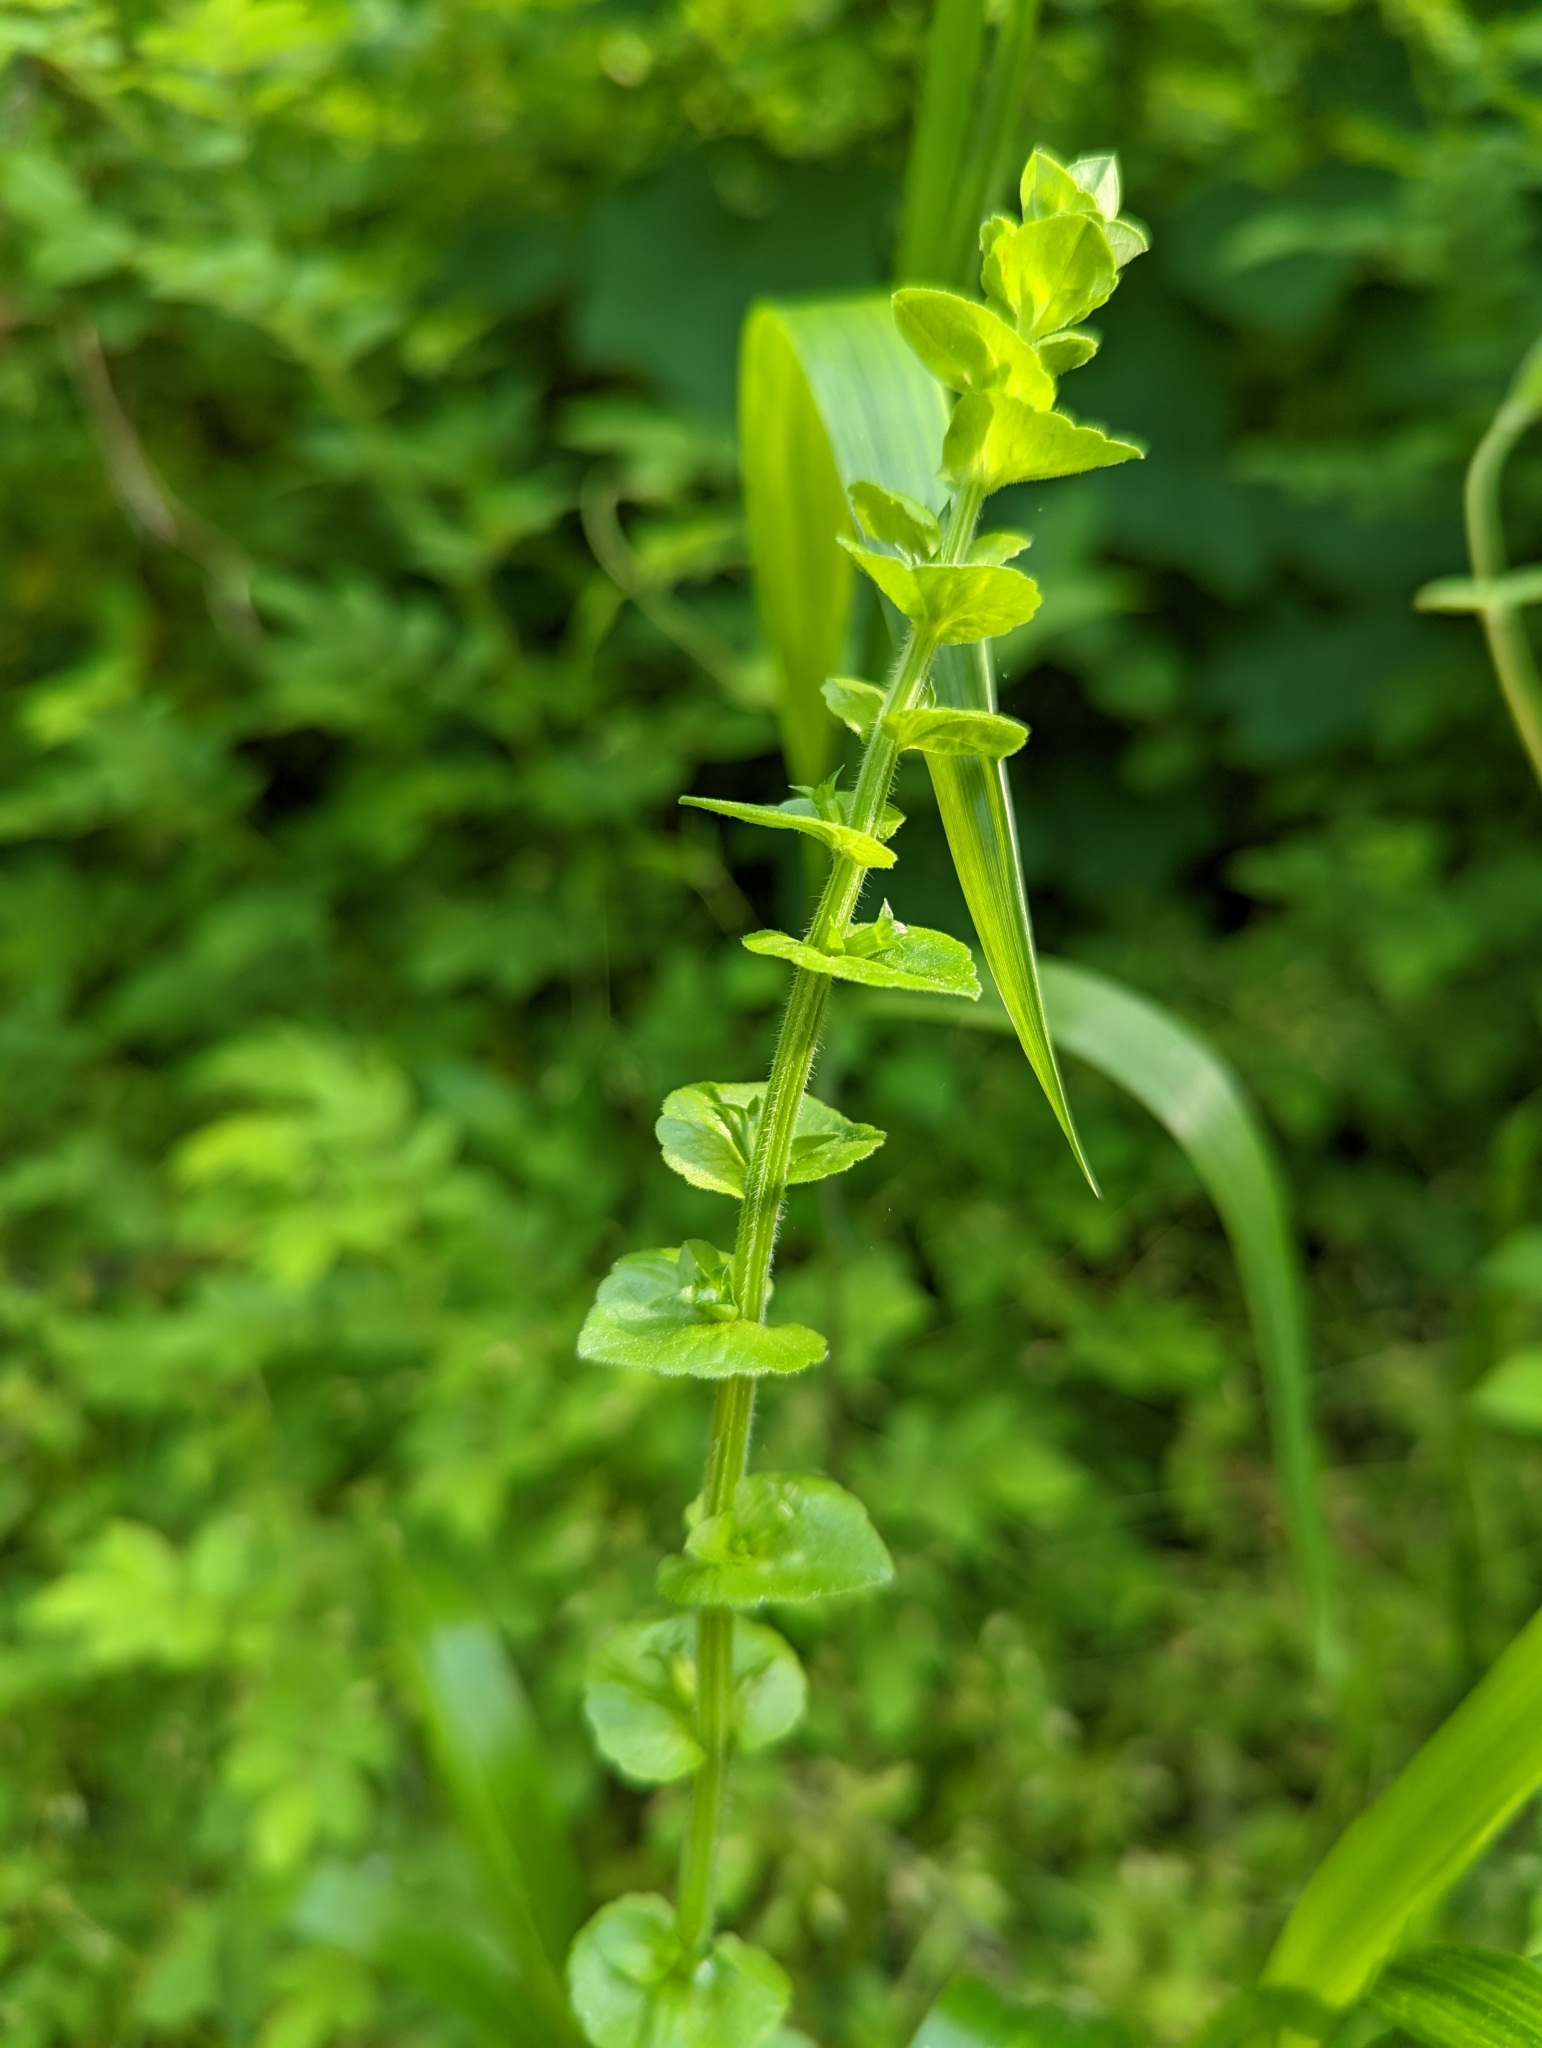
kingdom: Plantae
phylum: Tracheophyta
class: Magnoliopsida
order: Asterales
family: Campanulaceae
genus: Triodanis
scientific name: Triodanis perfoliata
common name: Clasping venus' looking-glass
